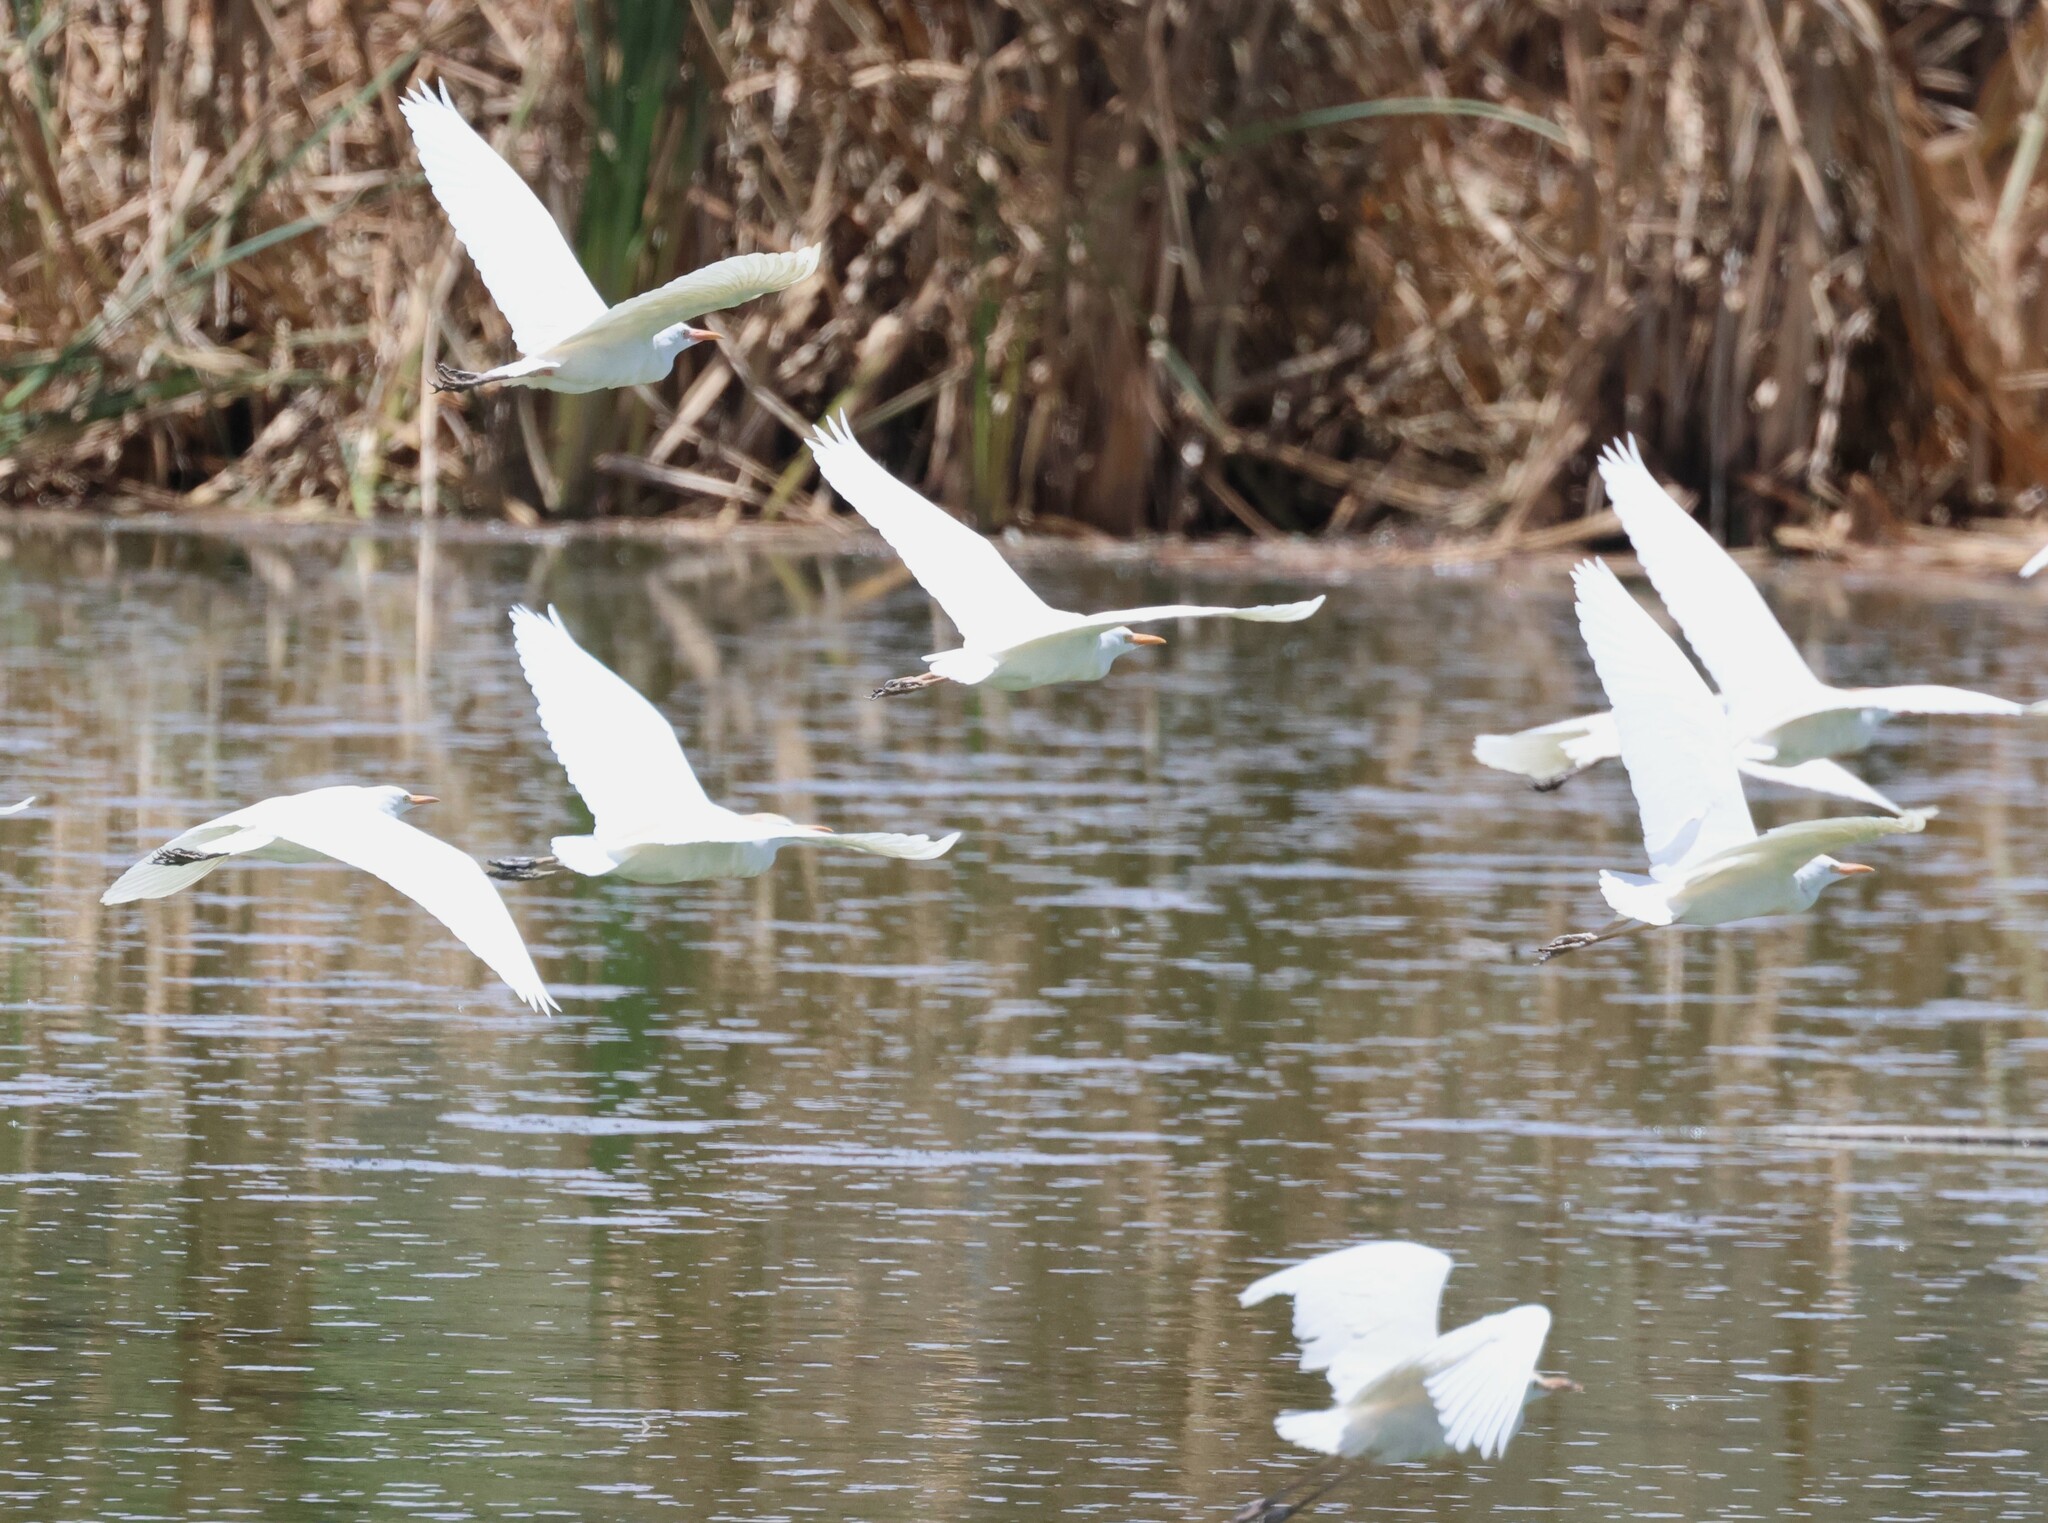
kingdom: Animalia
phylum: Chordata
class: Aves
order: Pelecaniformes
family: Ardeidae
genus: Bubulcus
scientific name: Bubulcus ibis
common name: Cattle egret
